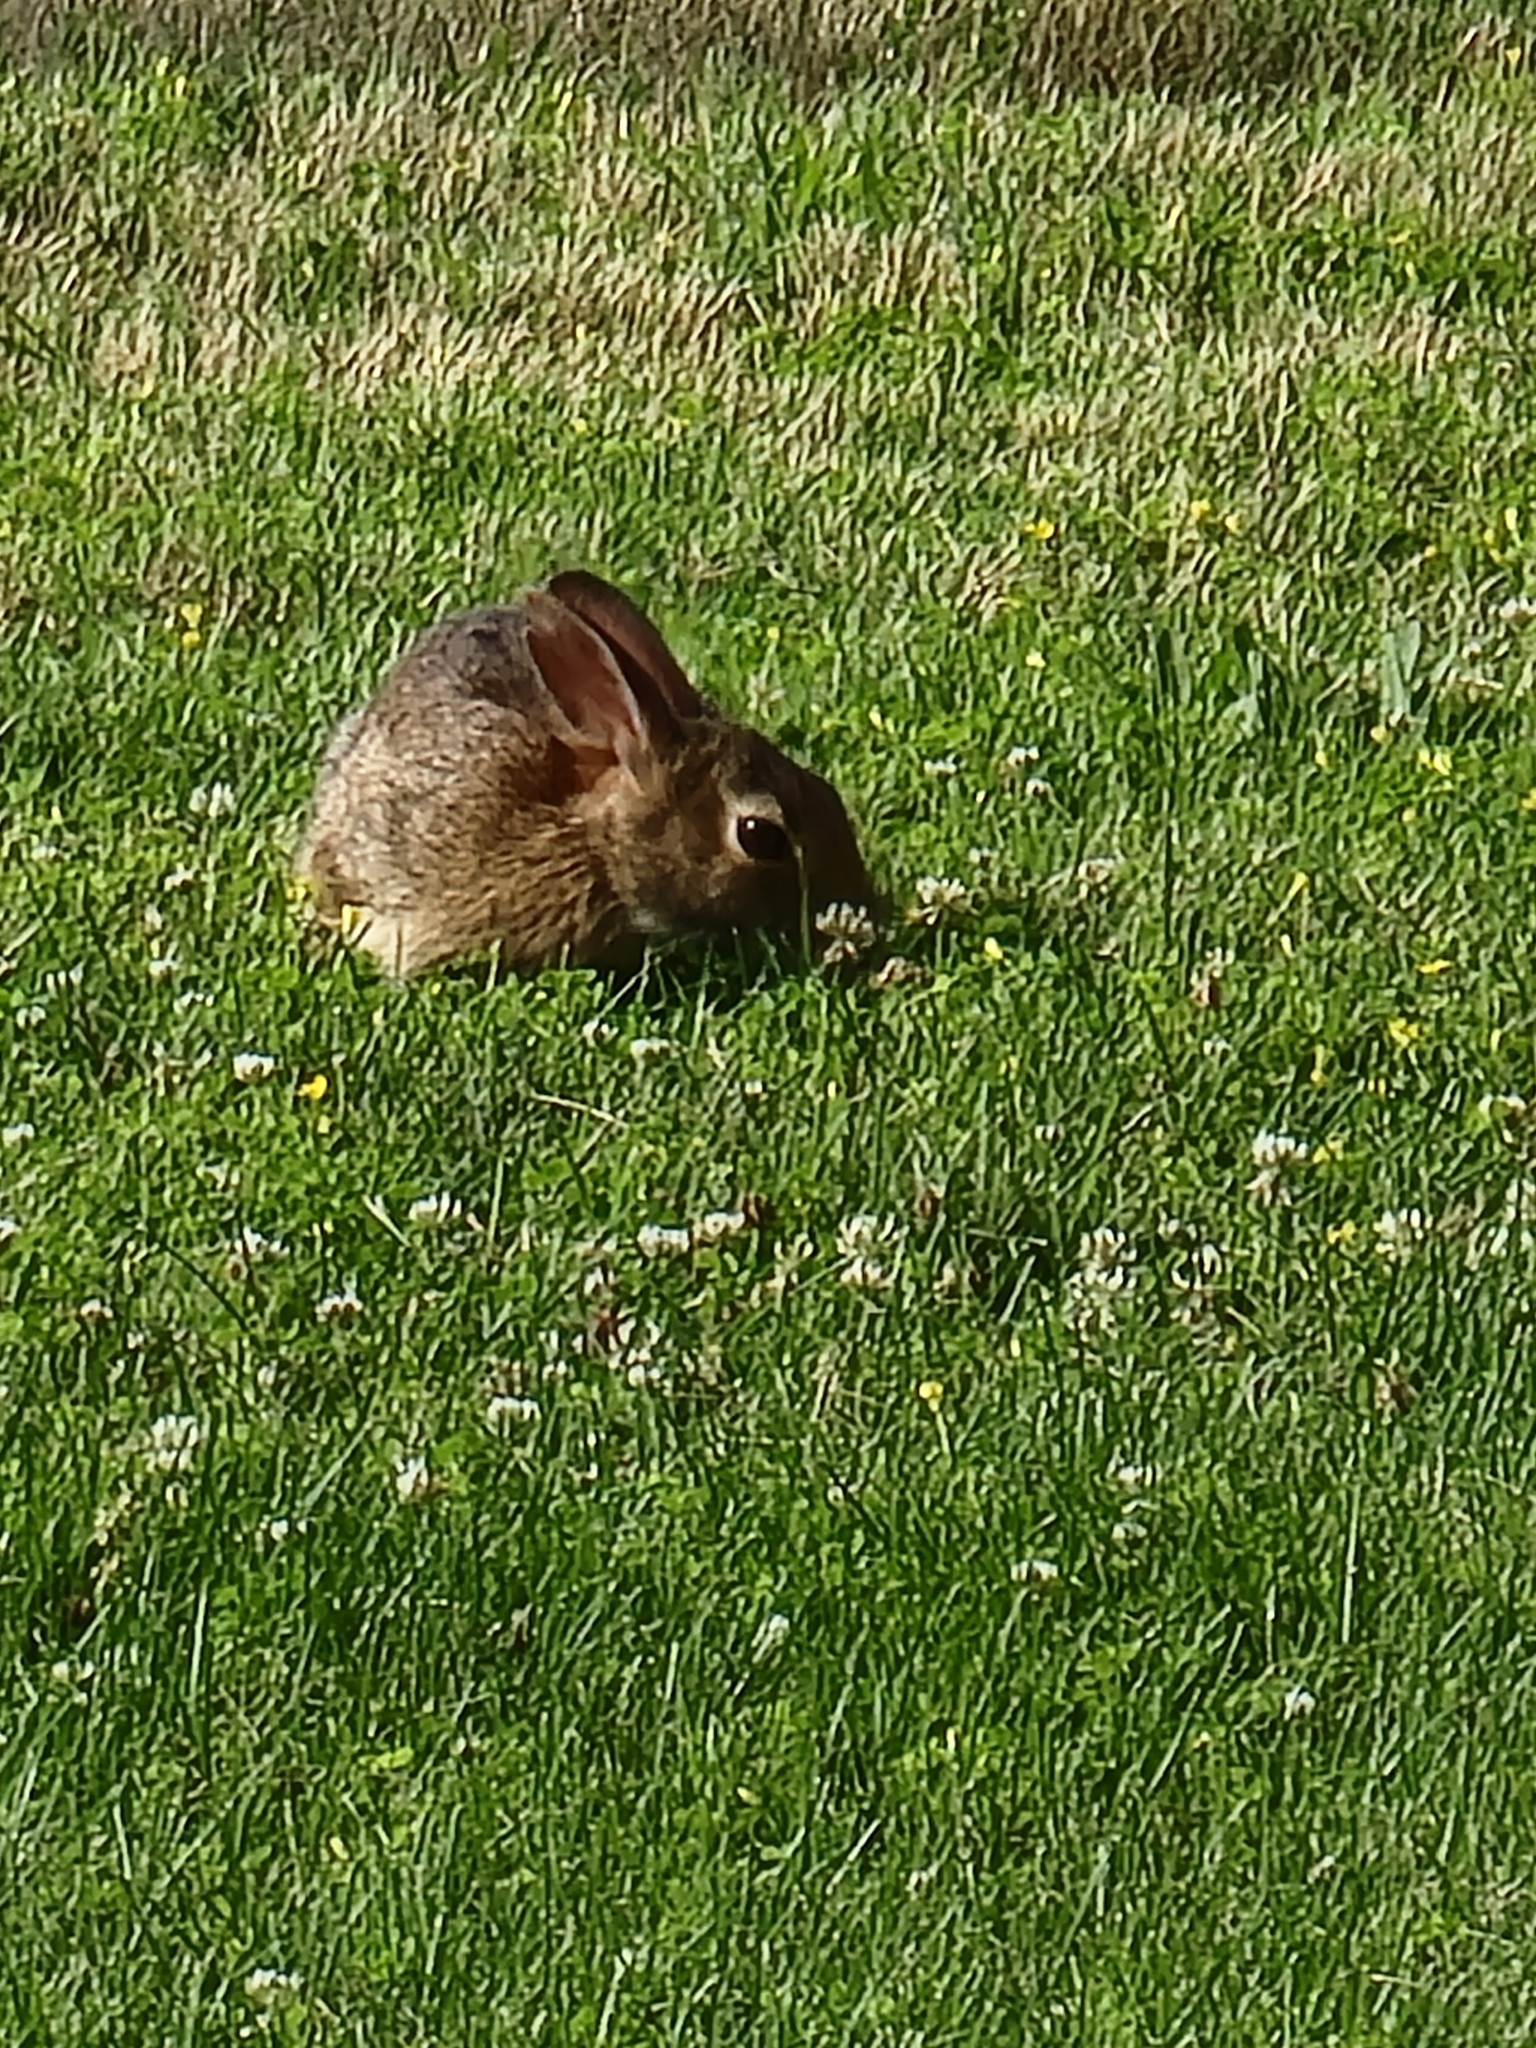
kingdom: Animalia
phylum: Chordata
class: Mammalia
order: Lagomorpha
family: Leporidae
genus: Sylvilagus
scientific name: Sylvilagus floridanus
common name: Eastern cottontail
